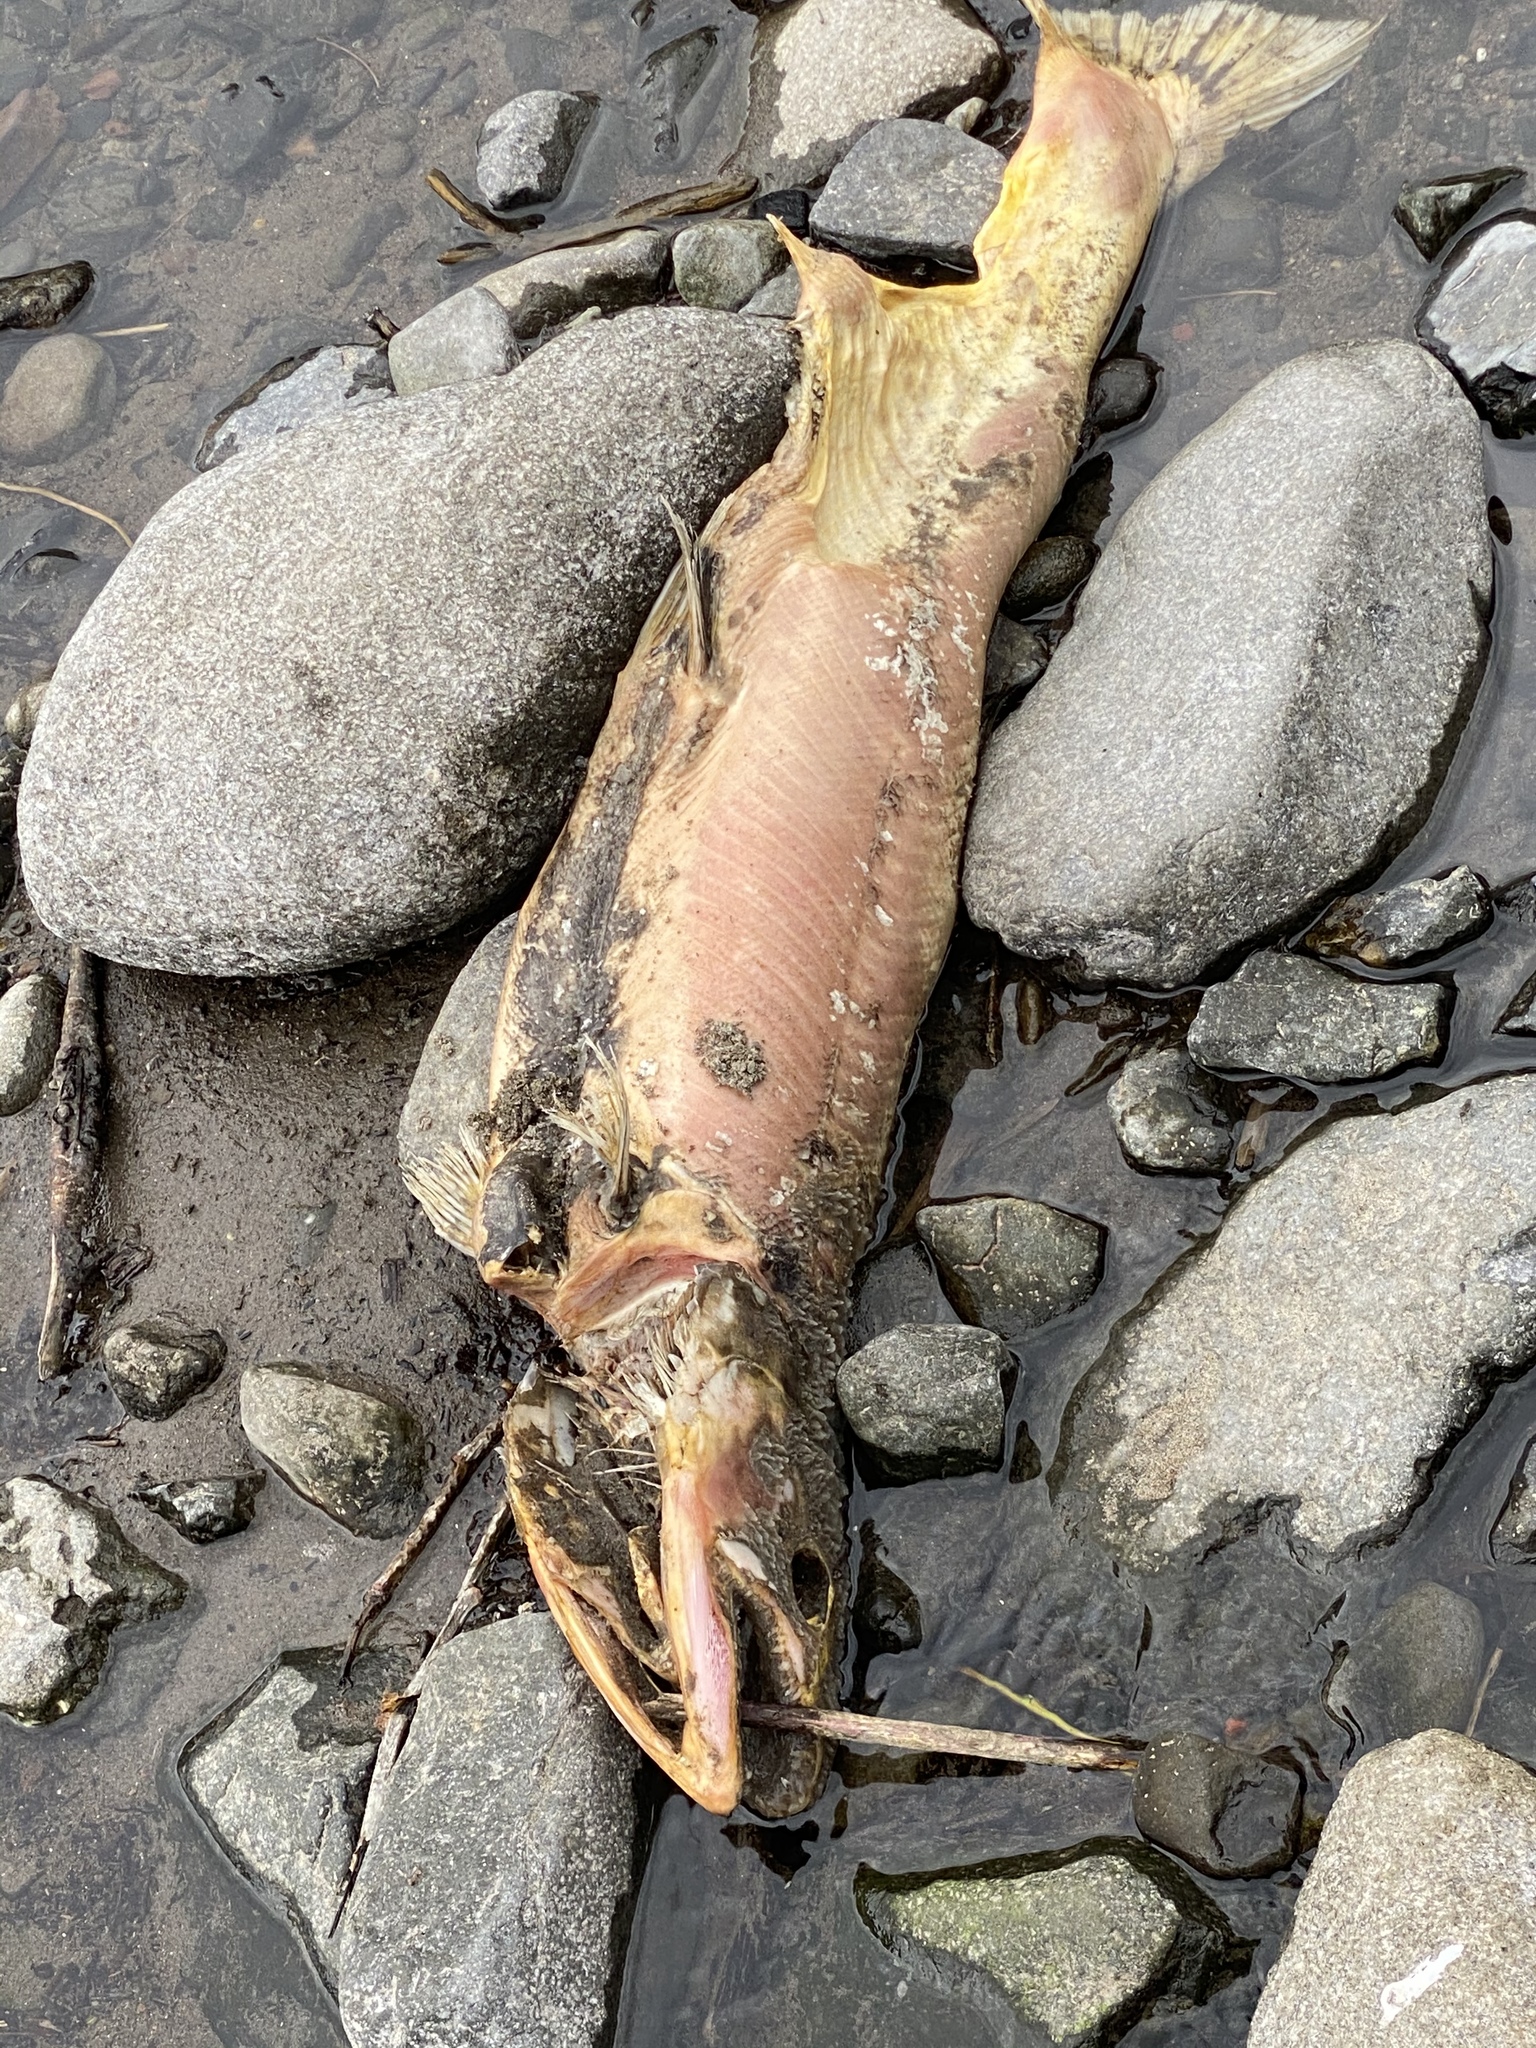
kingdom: Animalia
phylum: Chordata
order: Salmoniformes
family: Salmonidae
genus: Oncorhynchus
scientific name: Oncorhynchus tshawytscha
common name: Chinook salmon
